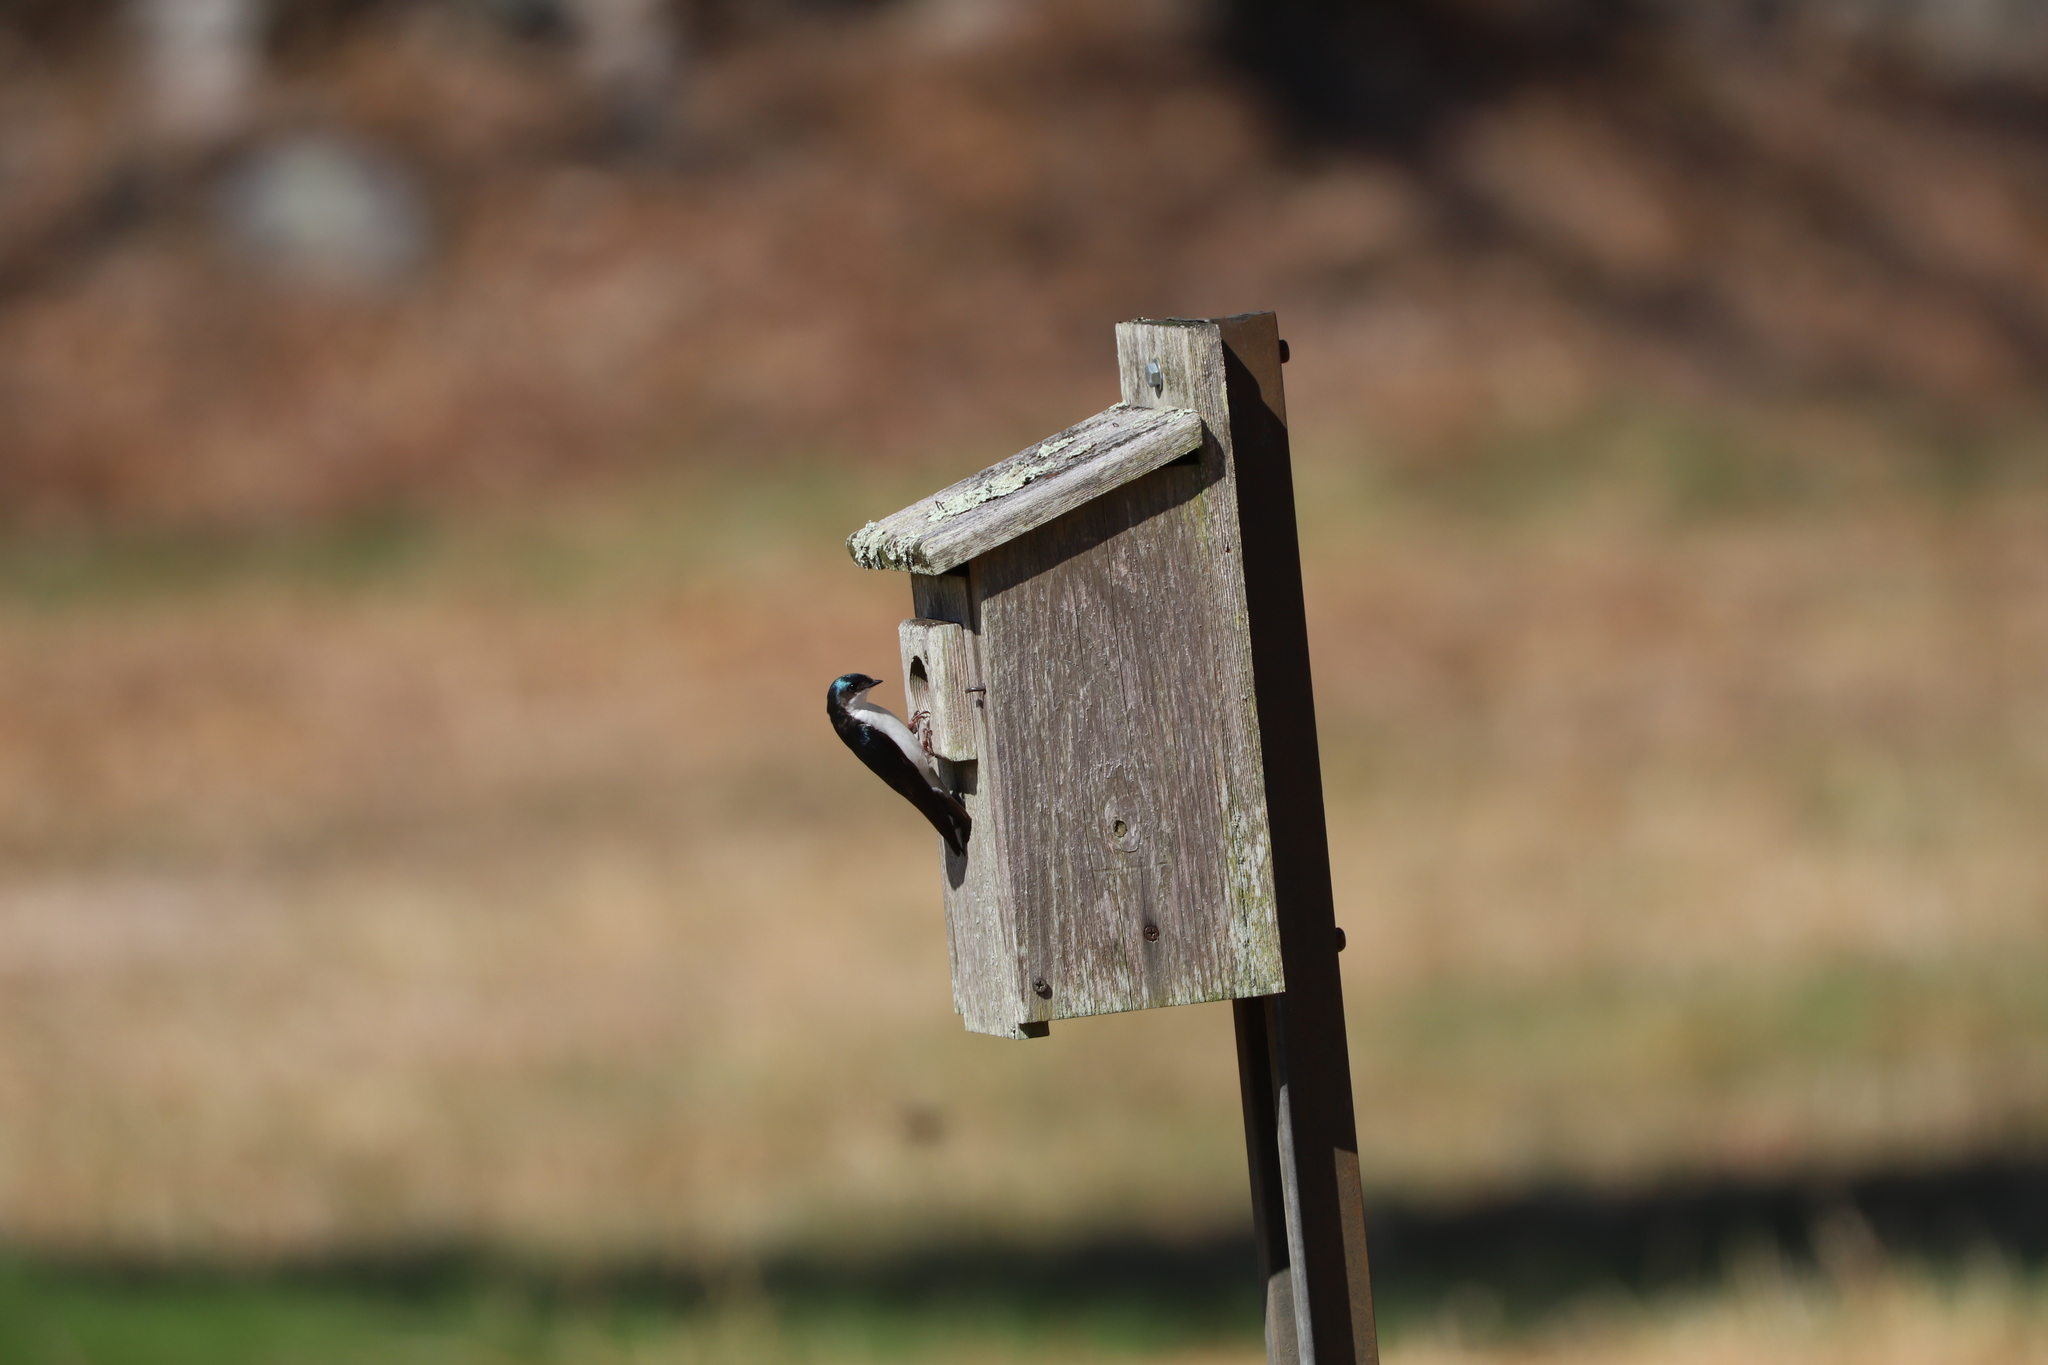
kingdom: Animalia
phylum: Chordata
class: Aves
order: Passeriformes
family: Hirundinidae
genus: Tachycineta
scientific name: Tachycineta bicolor
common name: Tree swallow
